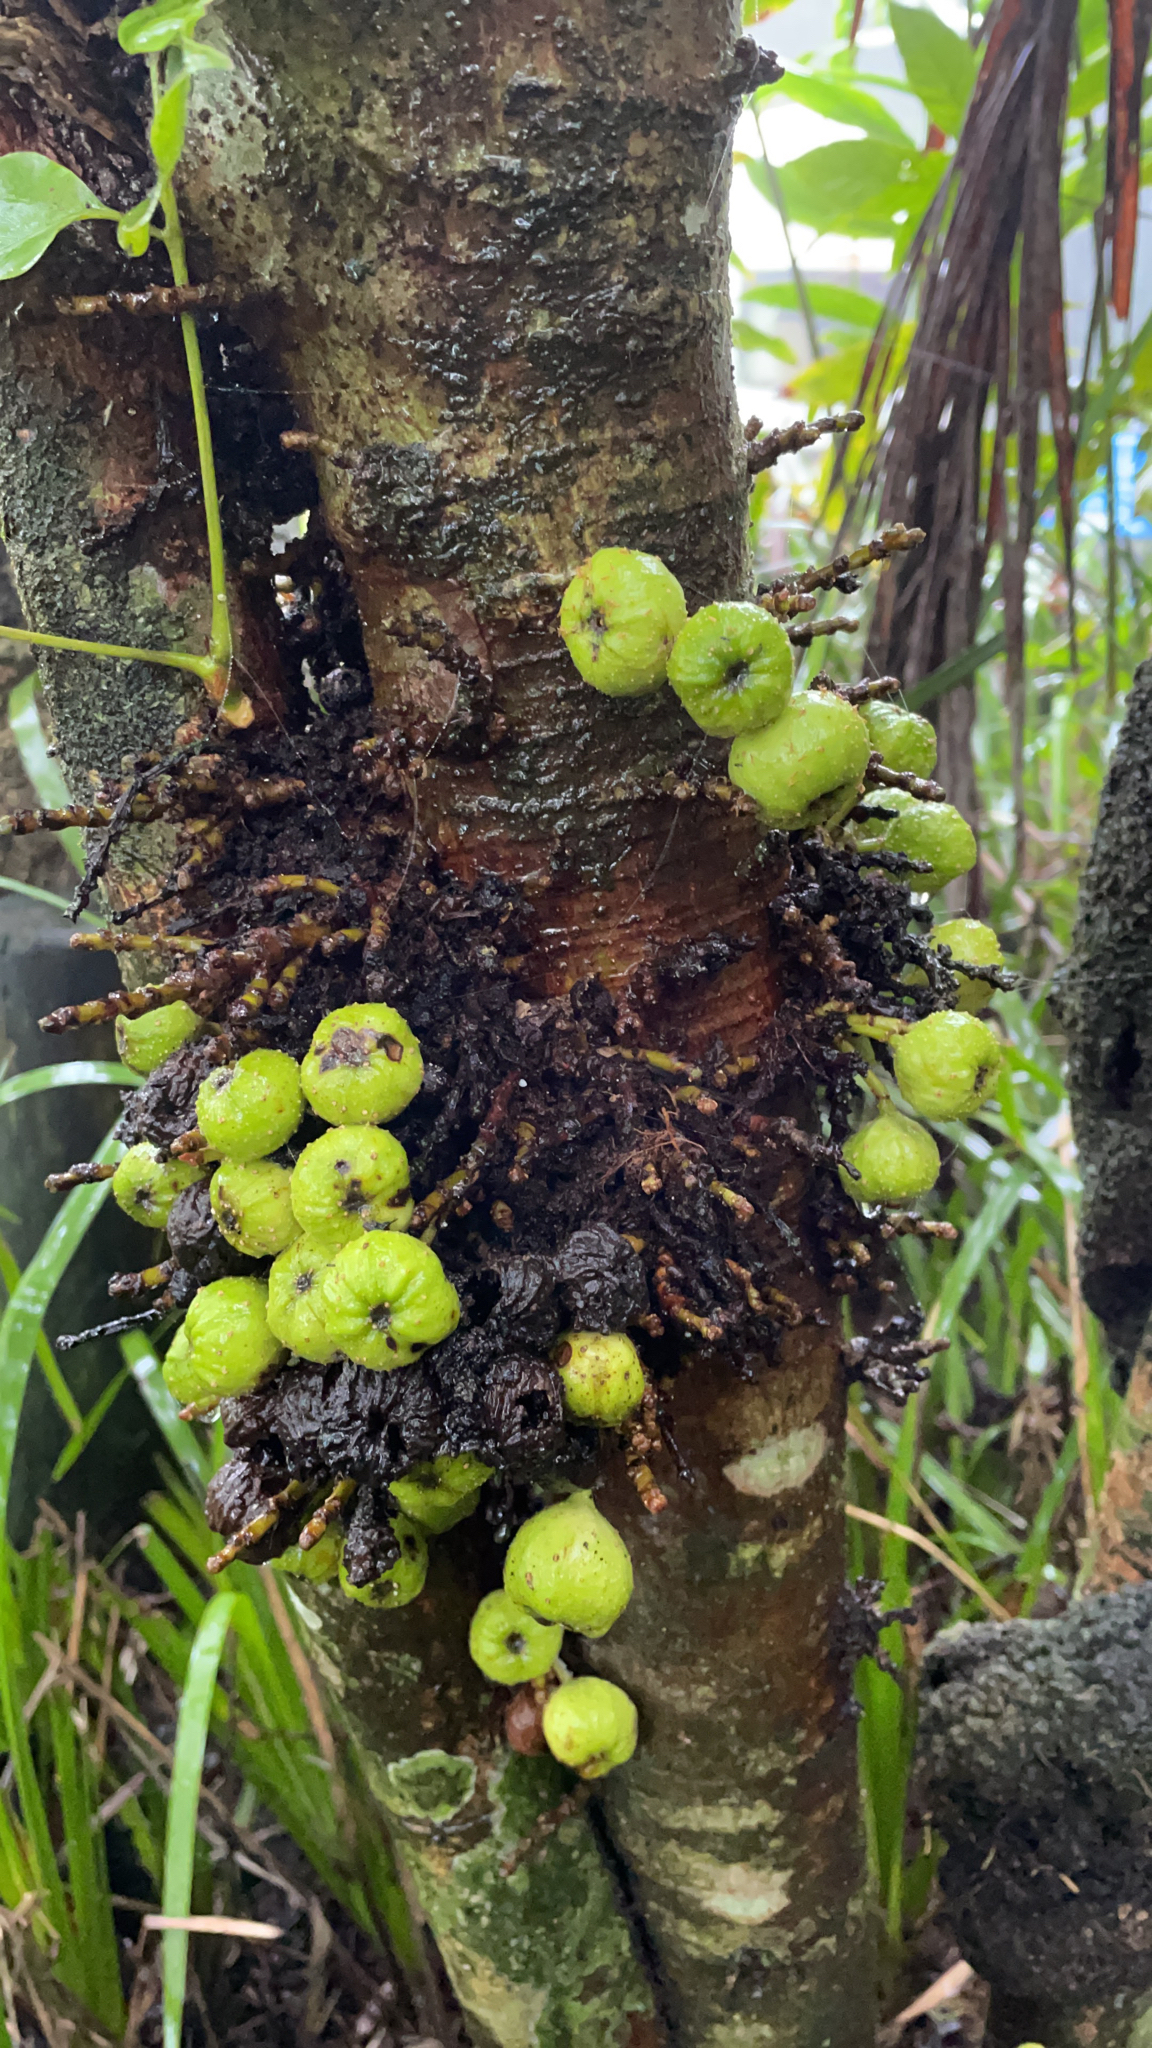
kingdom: Plantae
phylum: Tracheophyta
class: Magnoliopsida
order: Rosales
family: Moraceae
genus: Ficus
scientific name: Ficus septica
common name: Septic fig
